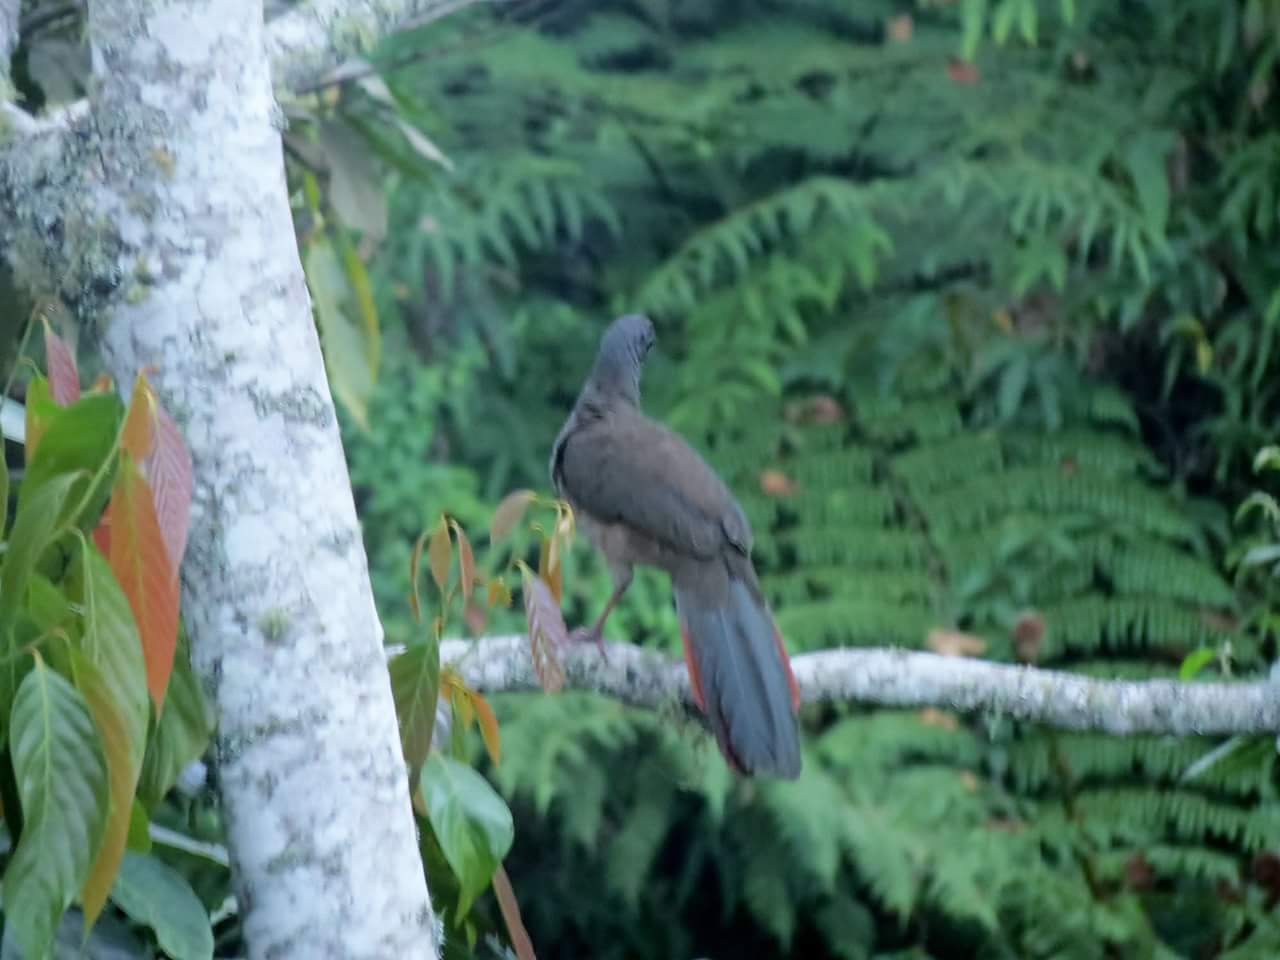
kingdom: Animalia
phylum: Chordata
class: Aves
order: Galliformes
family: Cracidae
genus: Ortalis
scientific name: Ortalis columbiana
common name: Colombian chachalaca
